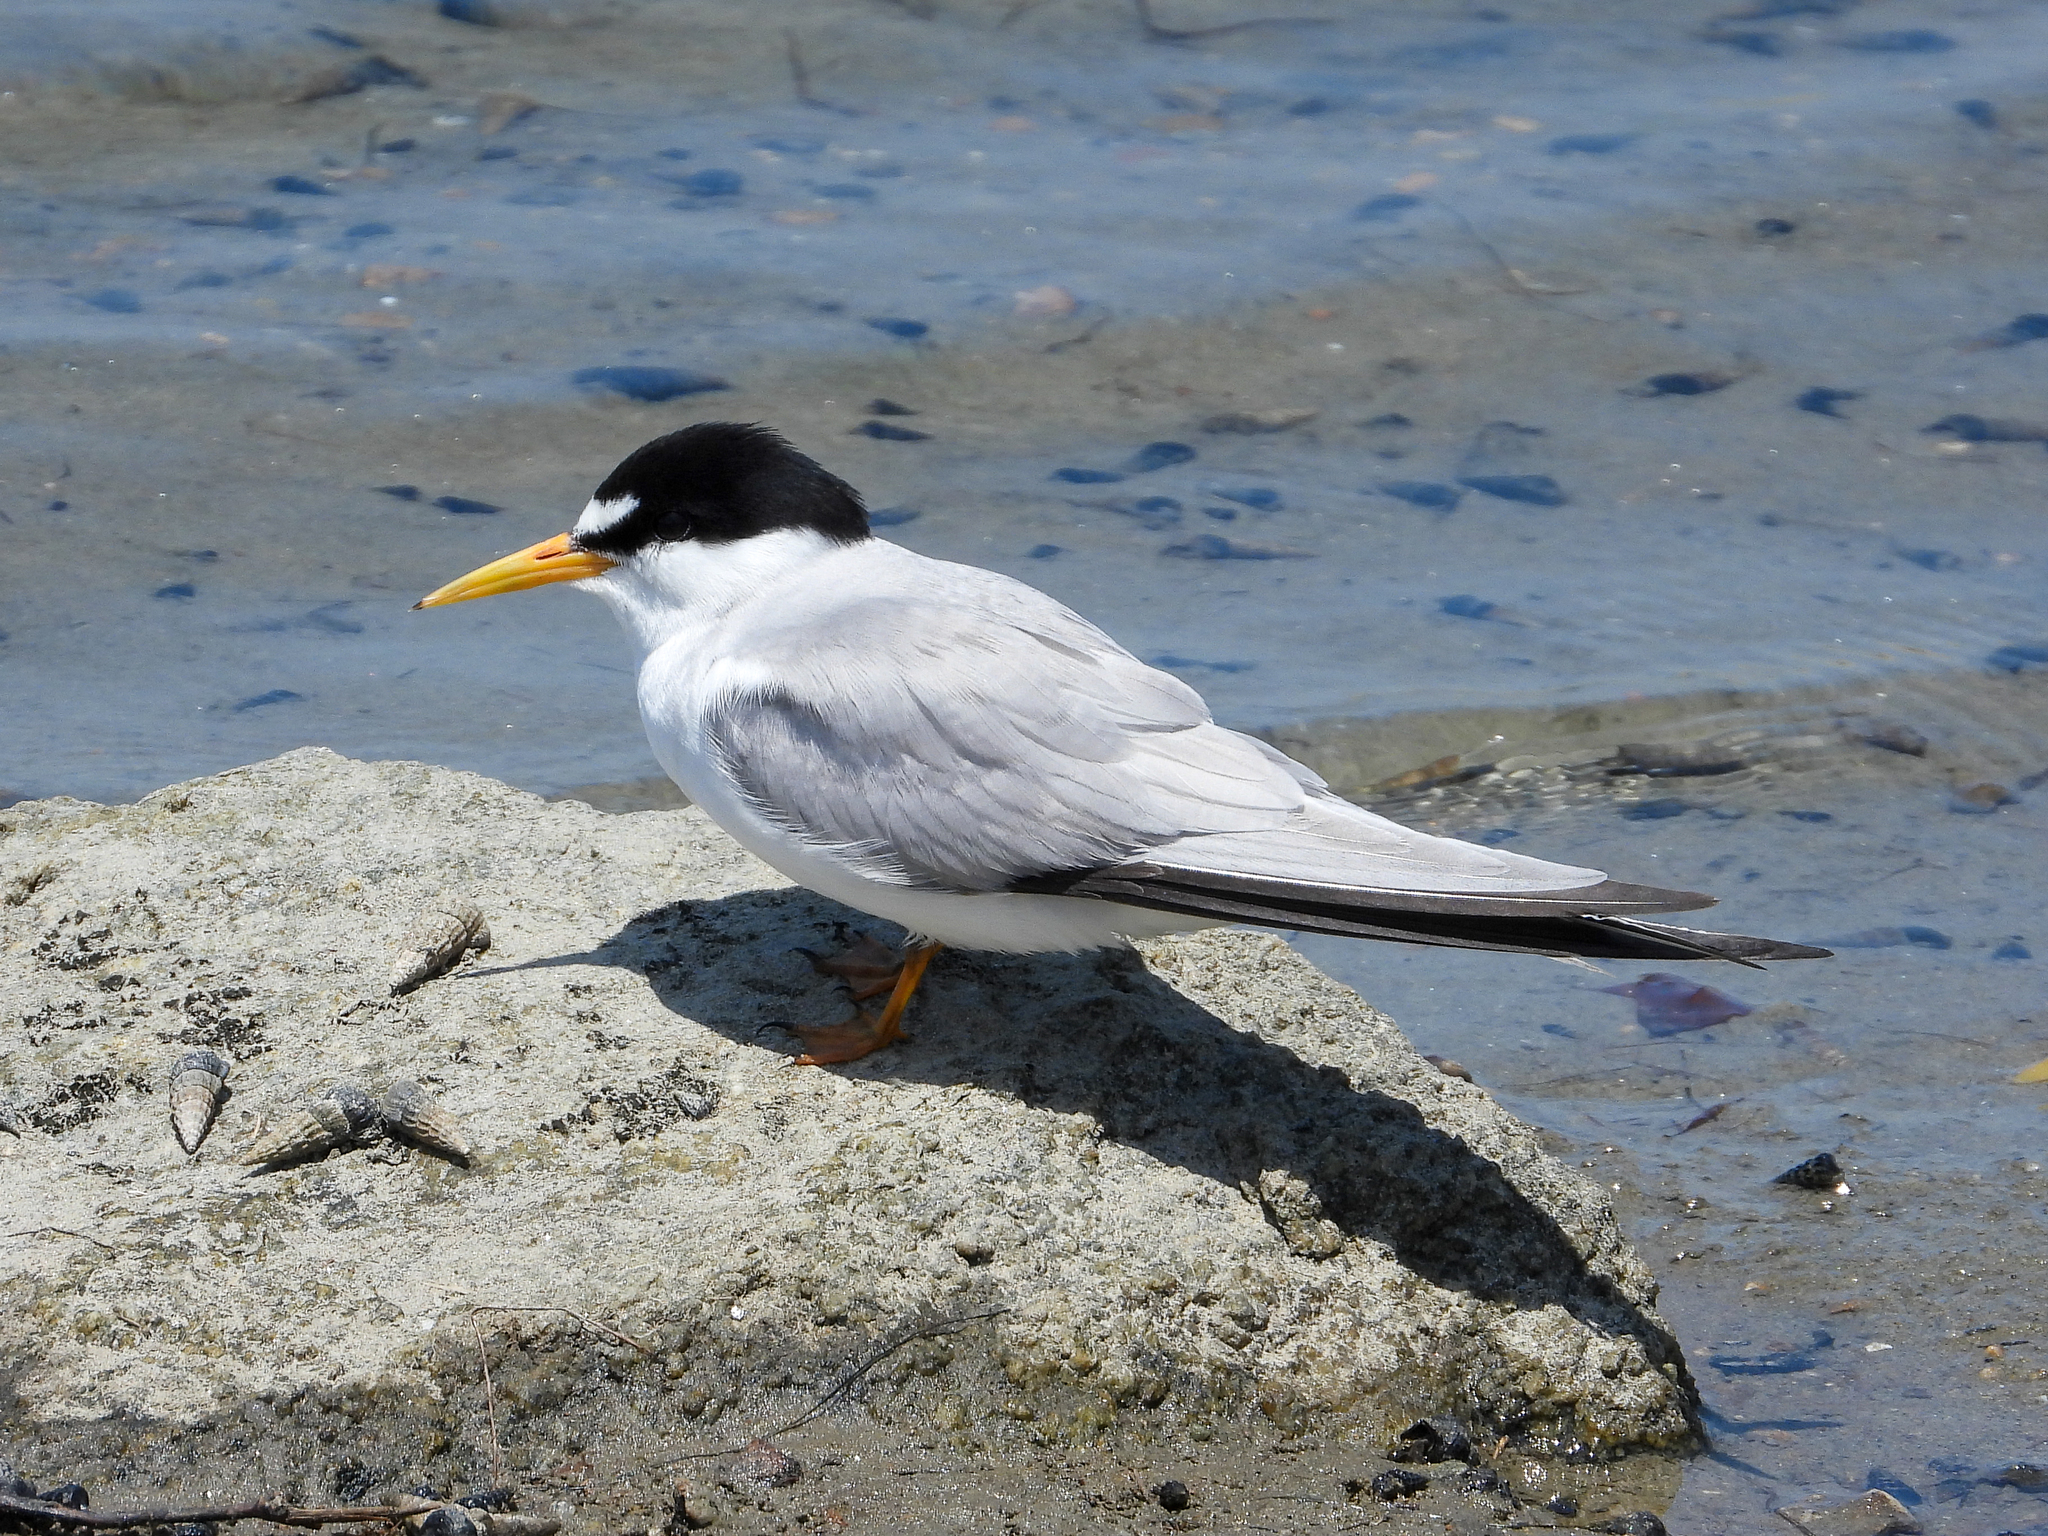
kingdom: Animalia
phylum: Chordata
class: Aves
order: Charadriiformes
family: Laridae
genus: Sternula
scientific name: Sternula antillarum
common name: Least tern
